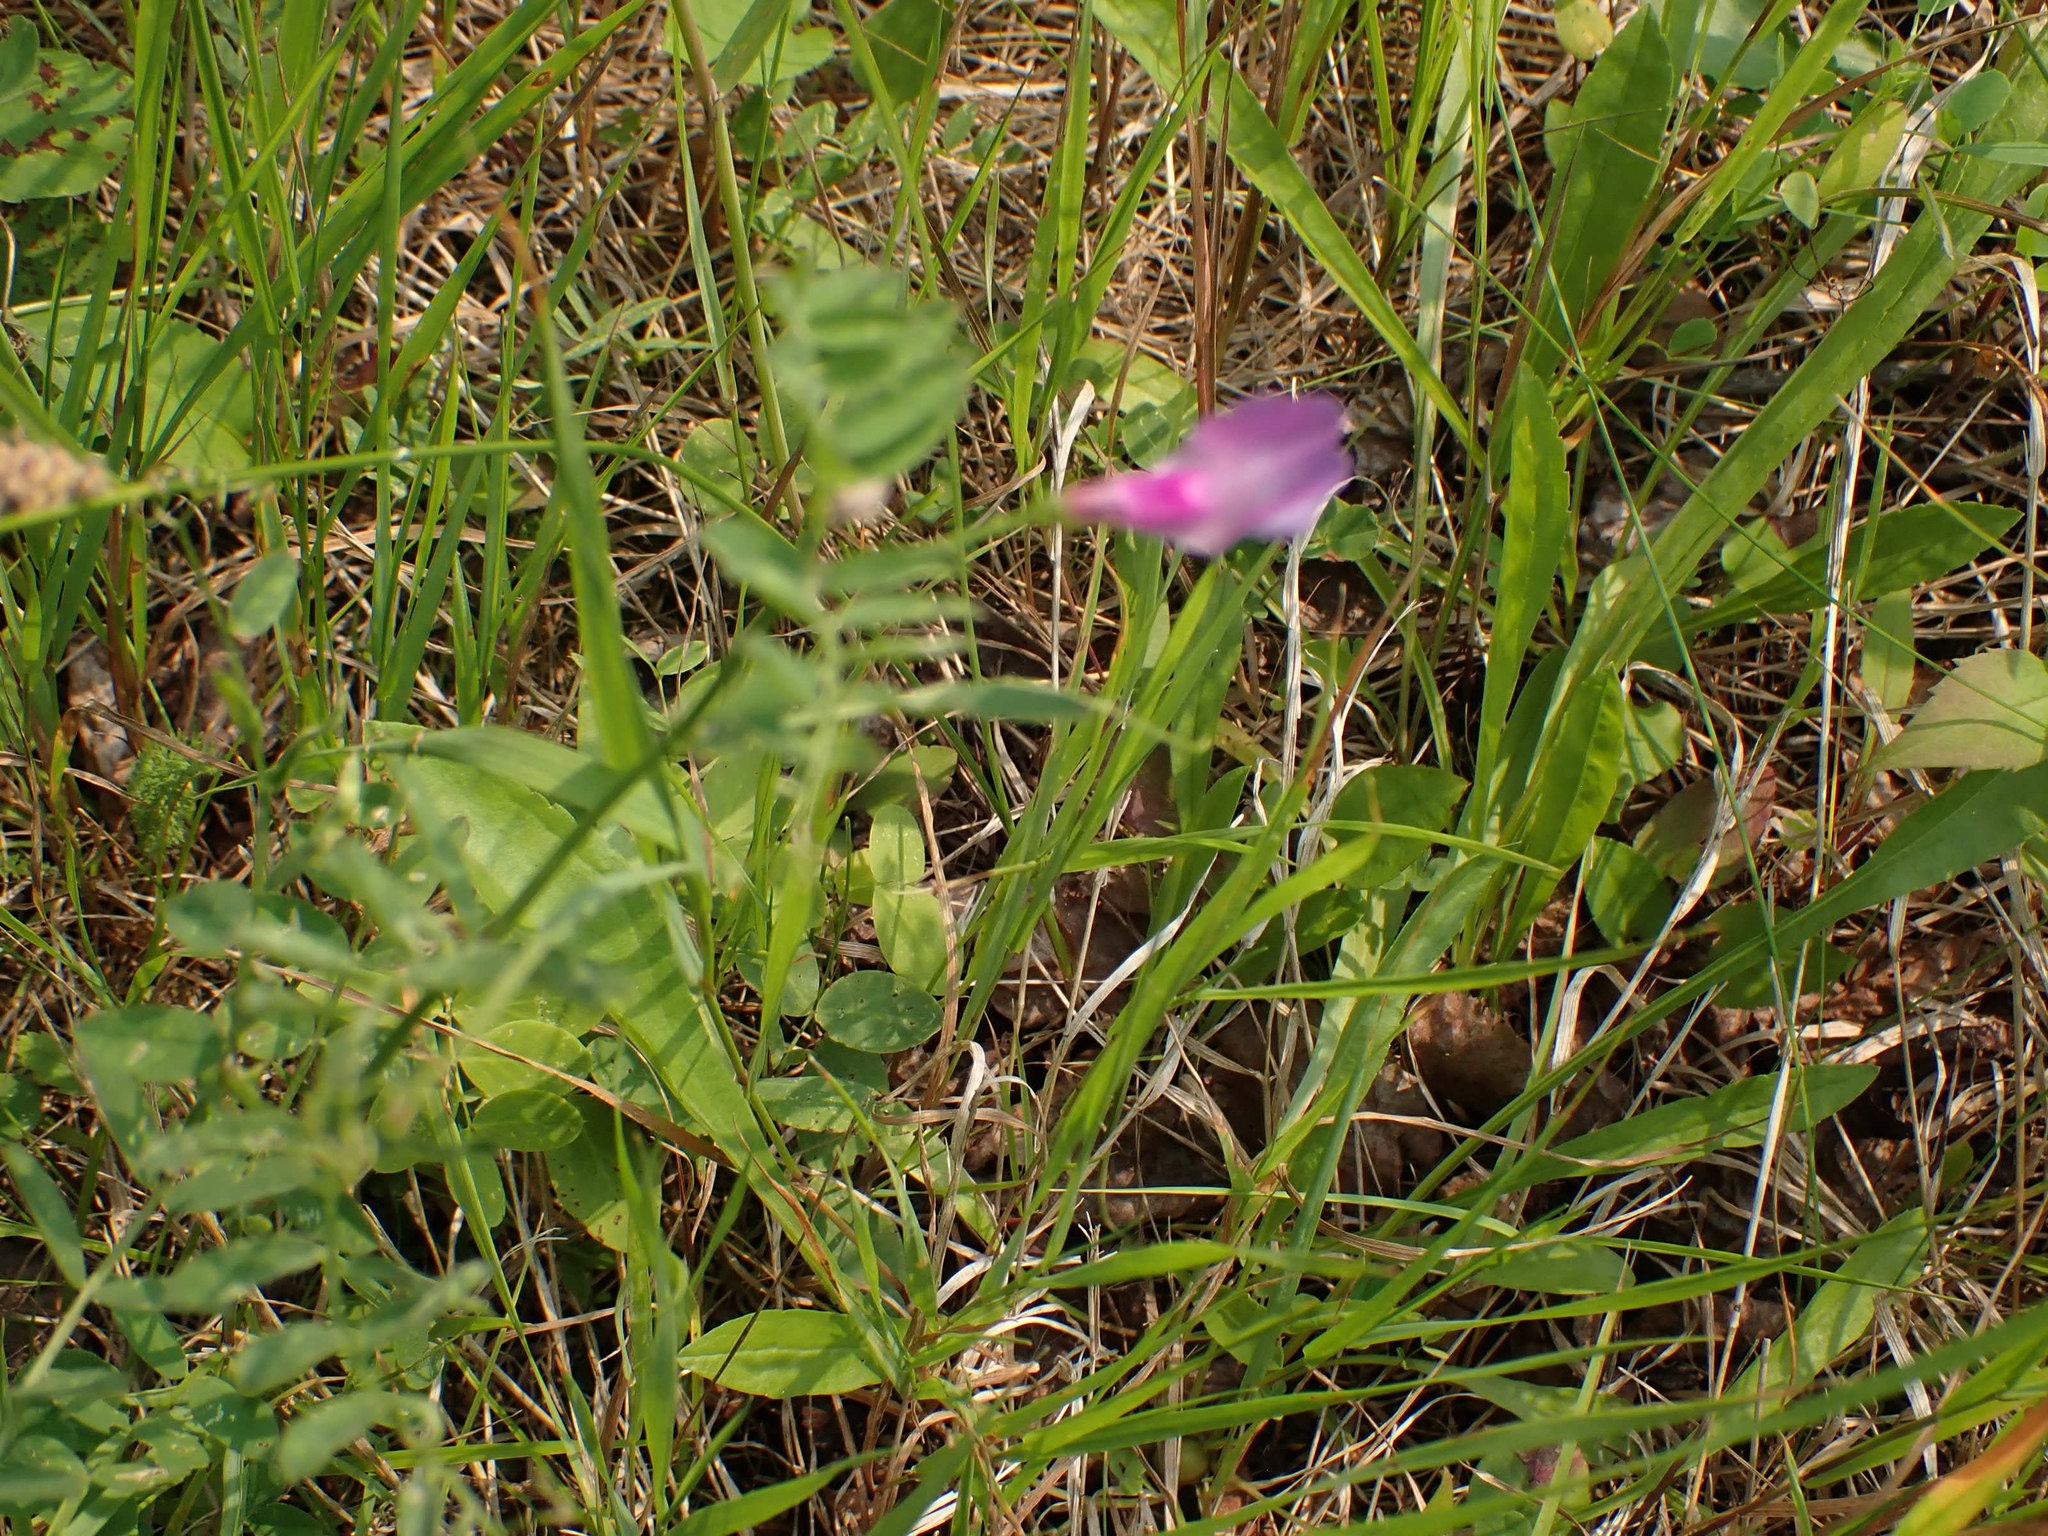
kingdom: Plantae
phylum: Tracheophyta
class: Magnoliopsida
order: Fabales
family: Fabaceae
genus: Vicia
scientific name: Vicia americana
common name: American vetch
